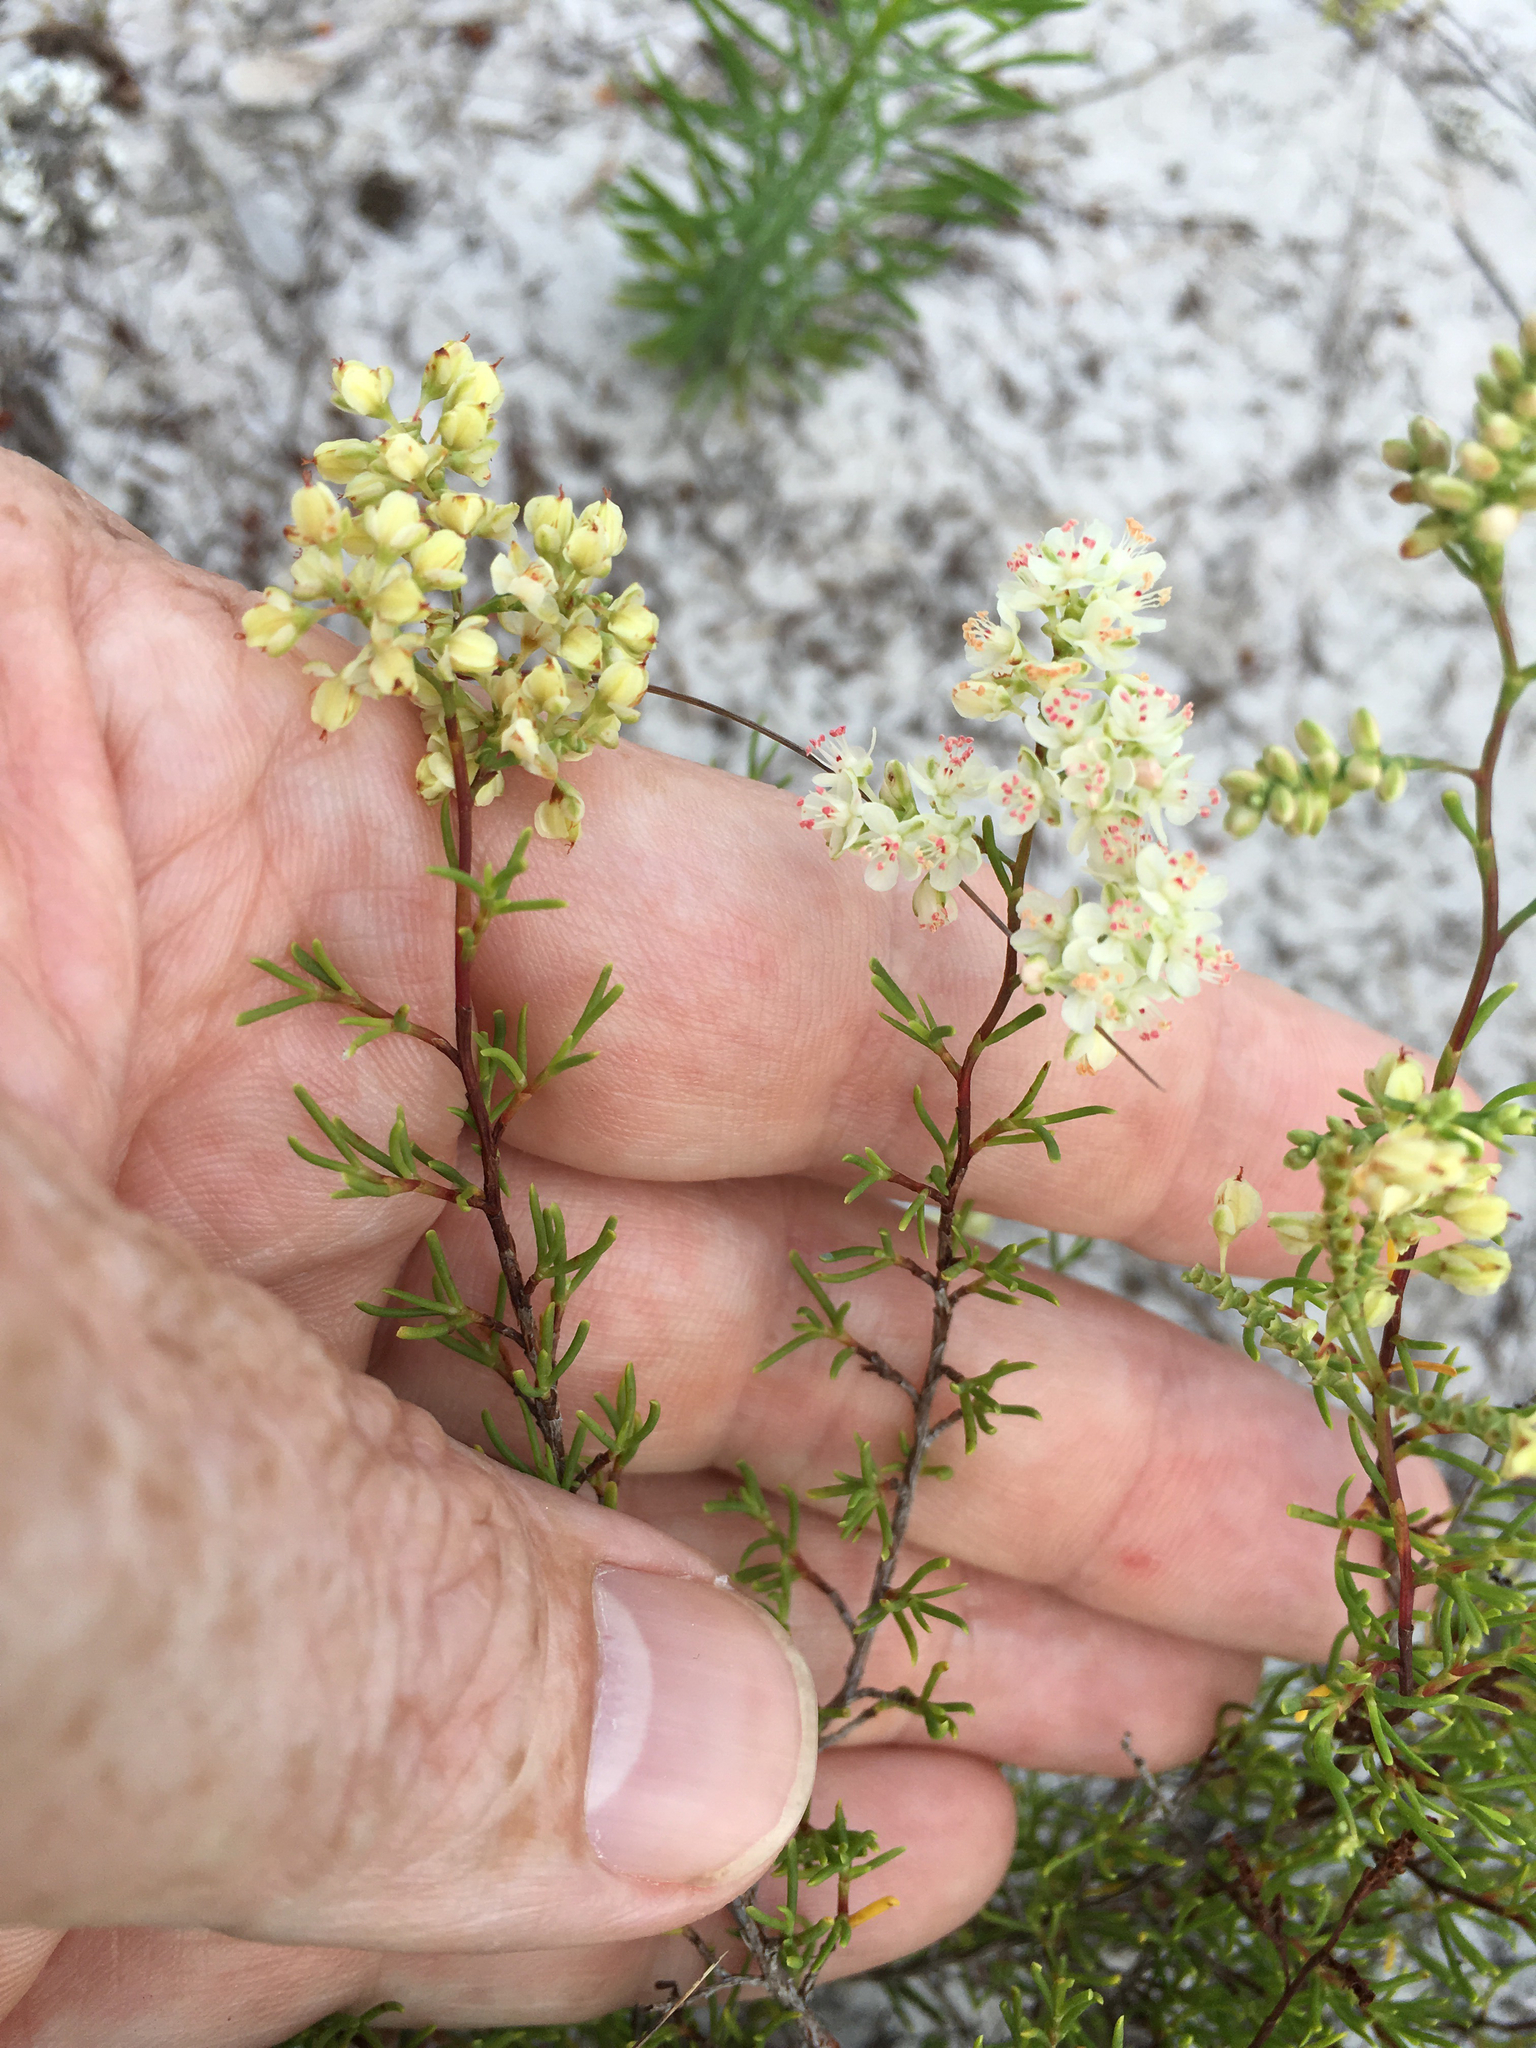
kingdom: Plantae
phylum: Tracheophyta
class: Magnoliopsida
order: Caryophyllales
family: Polygonaceae
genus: Polygonella
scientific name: Polygonella polygama
